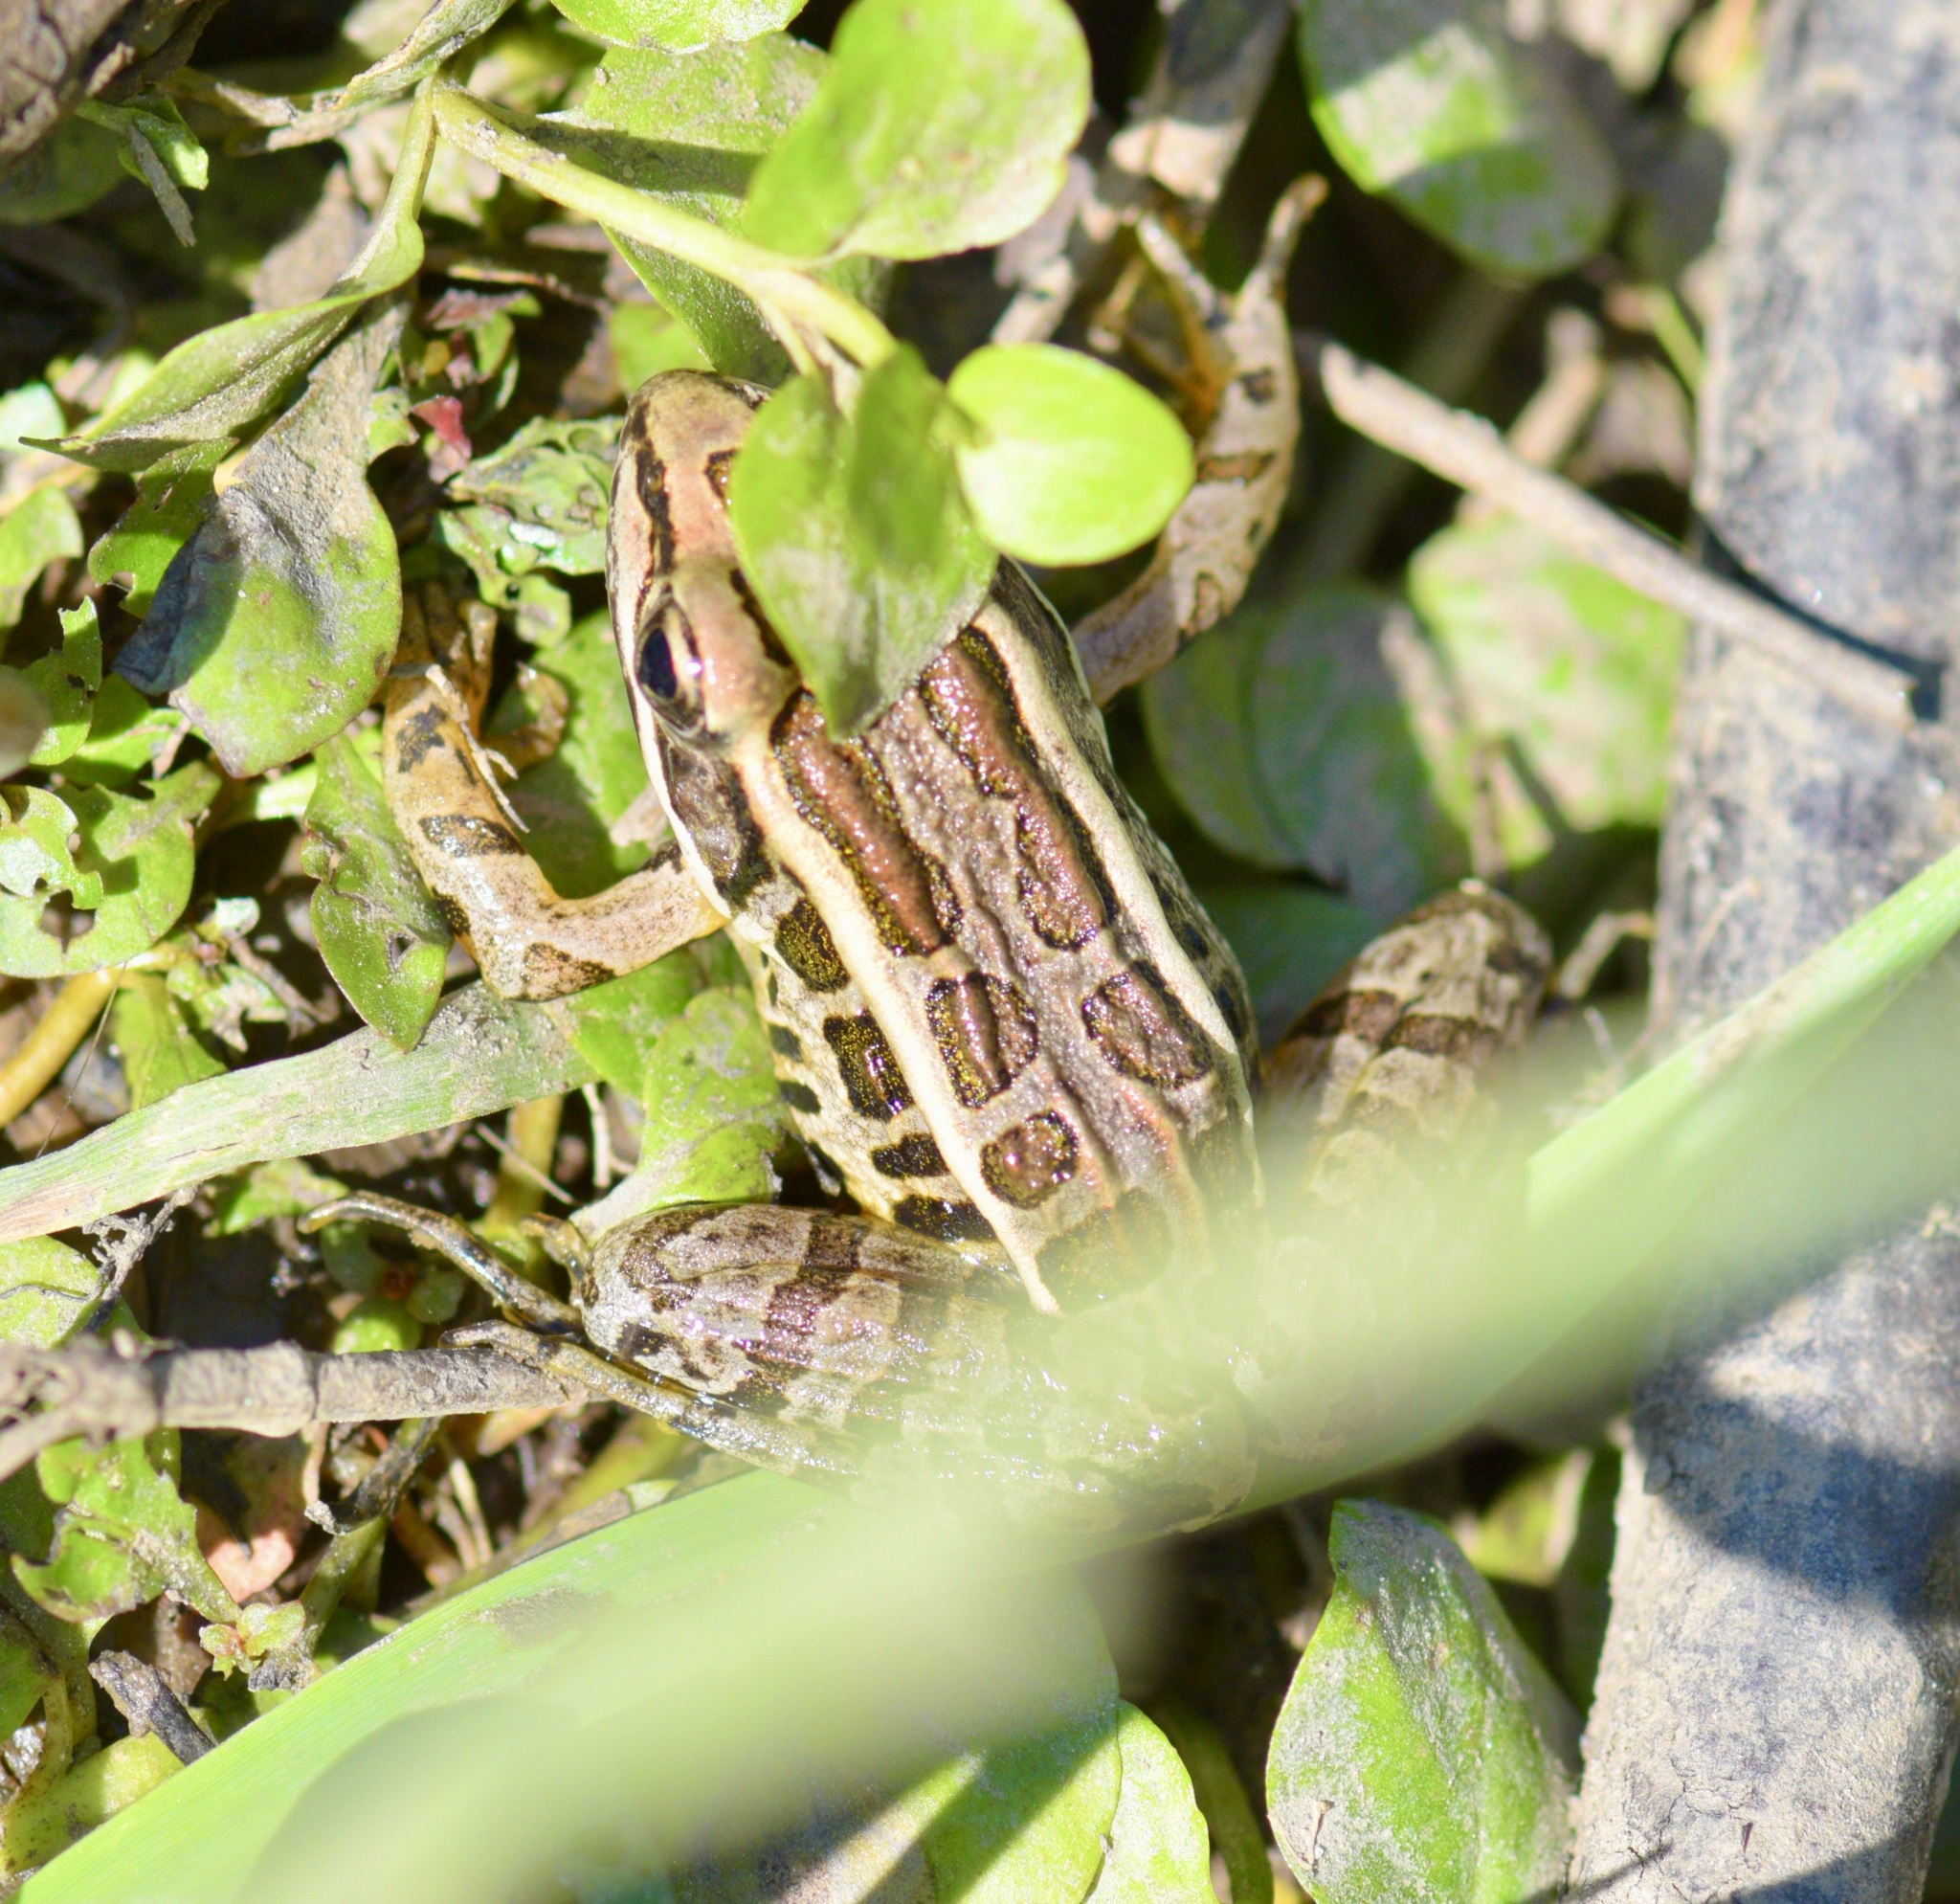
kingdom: Animalia
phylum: Chordata
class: Amphibia
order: Anura
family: Ranidae
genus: Lithobates
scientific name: Lithobates palustris
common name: Pickerel frog
